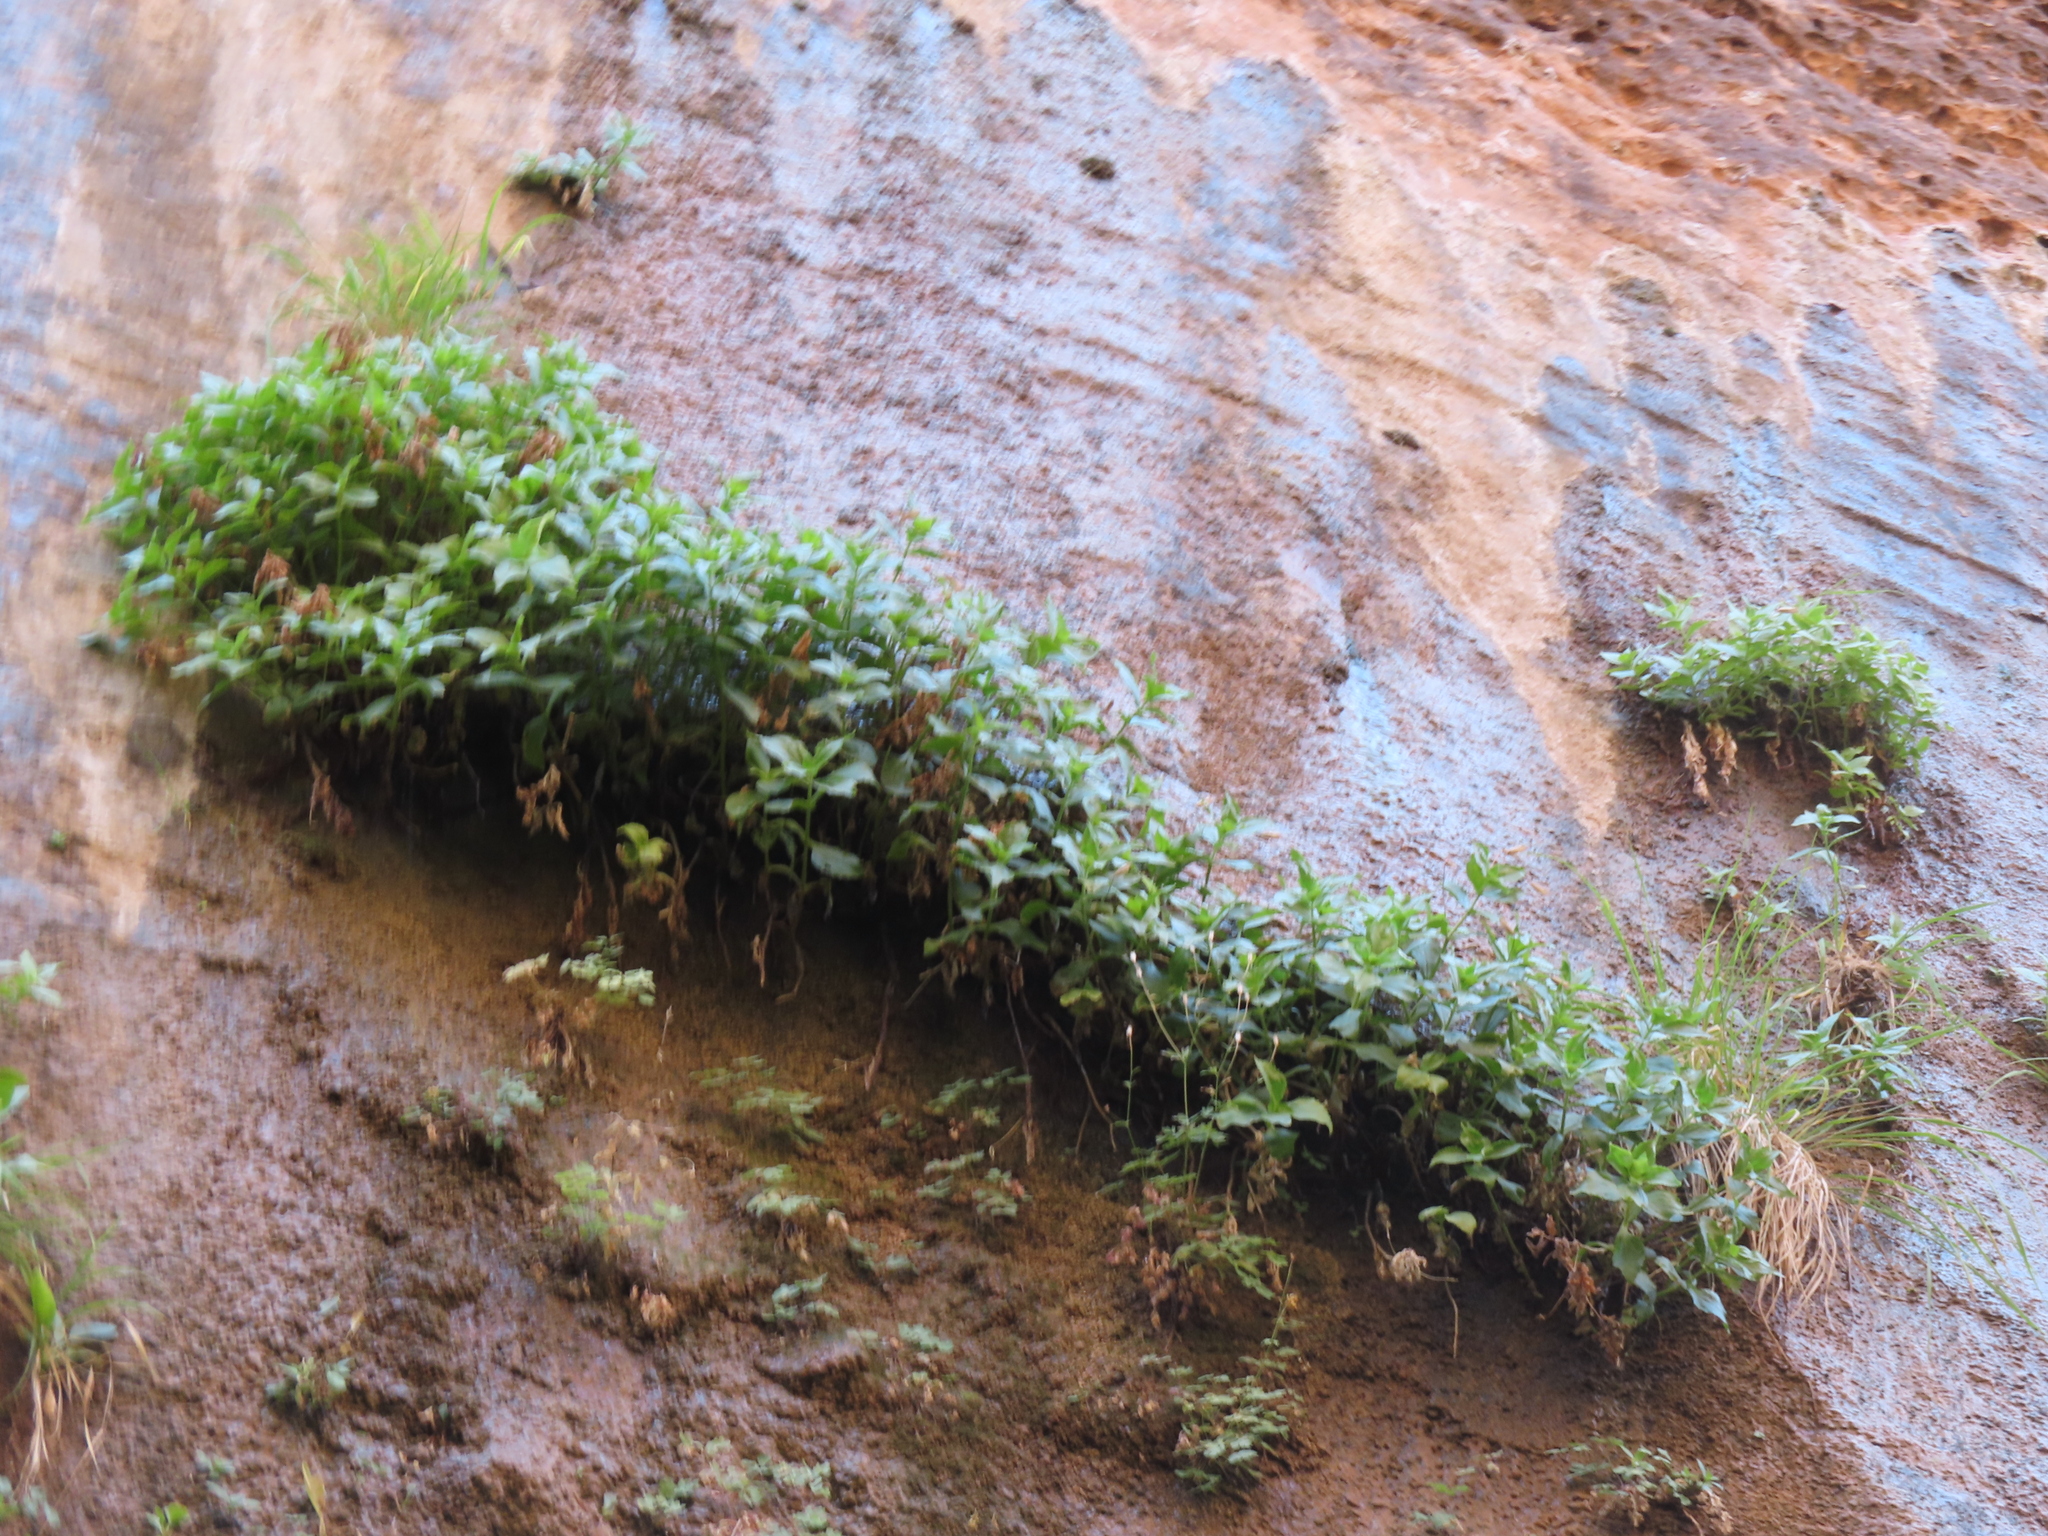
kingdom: Plantae
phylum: Tracheophyta
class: Magnoliopsida
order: Lamiales
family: Phrymaceae
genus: Erythranthe
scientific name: Erythranthe verbenacea
